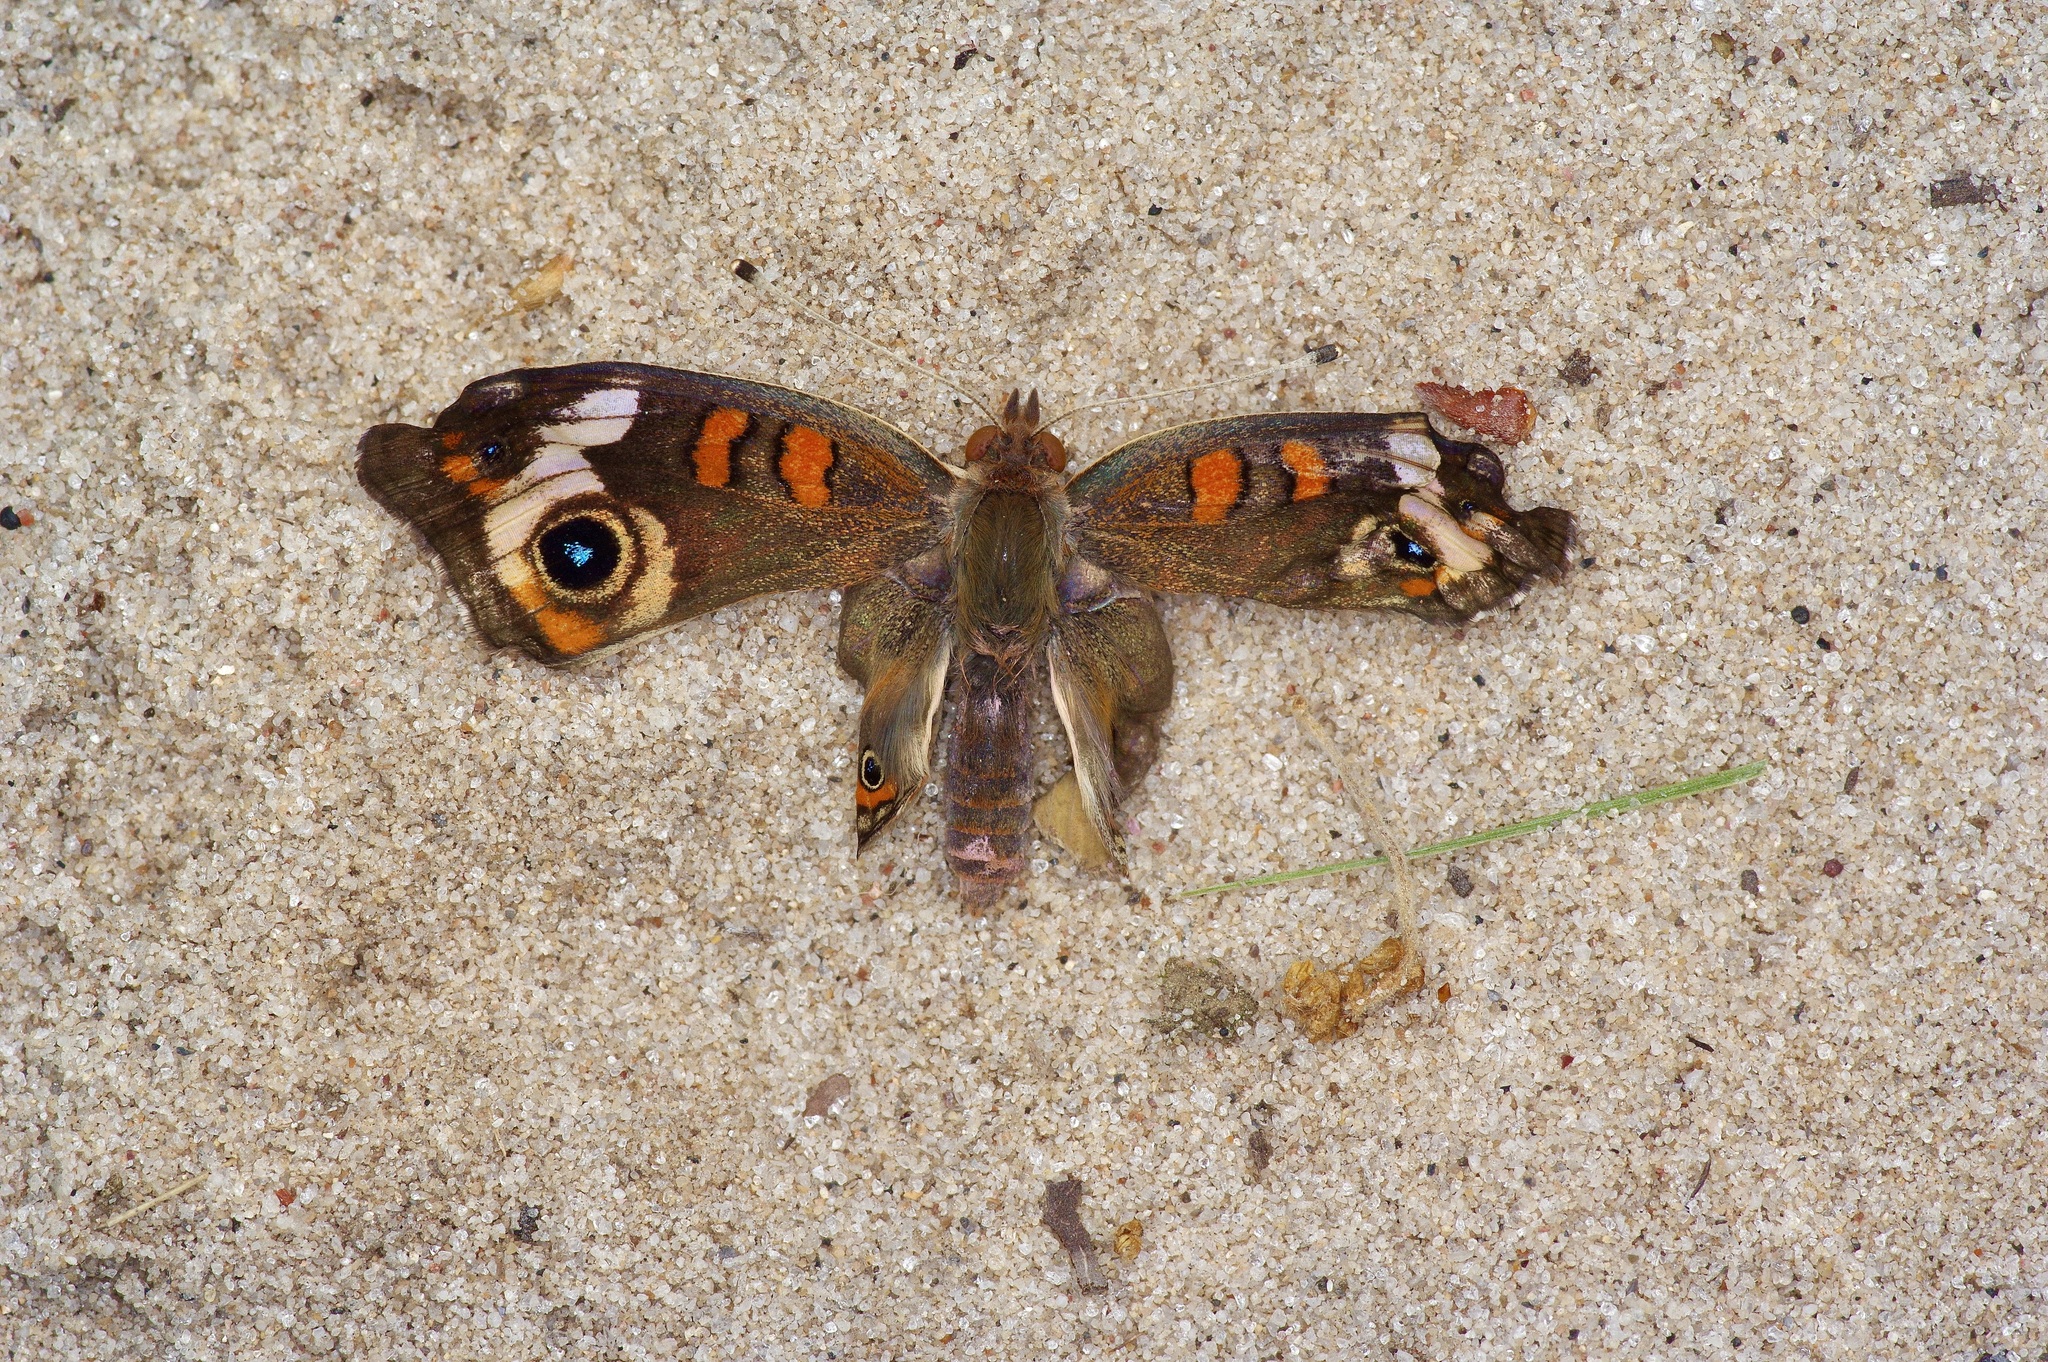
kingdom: Animalia
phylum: Arthropoda
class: Insecta
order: Lepidoptera
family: Nymphalidae
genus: Junonia
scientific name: Junonia coenia
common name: Common buckeye
